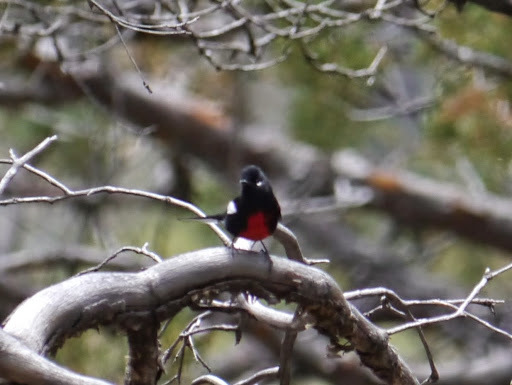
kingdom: Animalia
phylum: Chordata
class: Aves
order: Passeriformes
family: Parulidae
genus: Myioborus
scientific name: Myioborus pictus
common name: Painted whitestart
